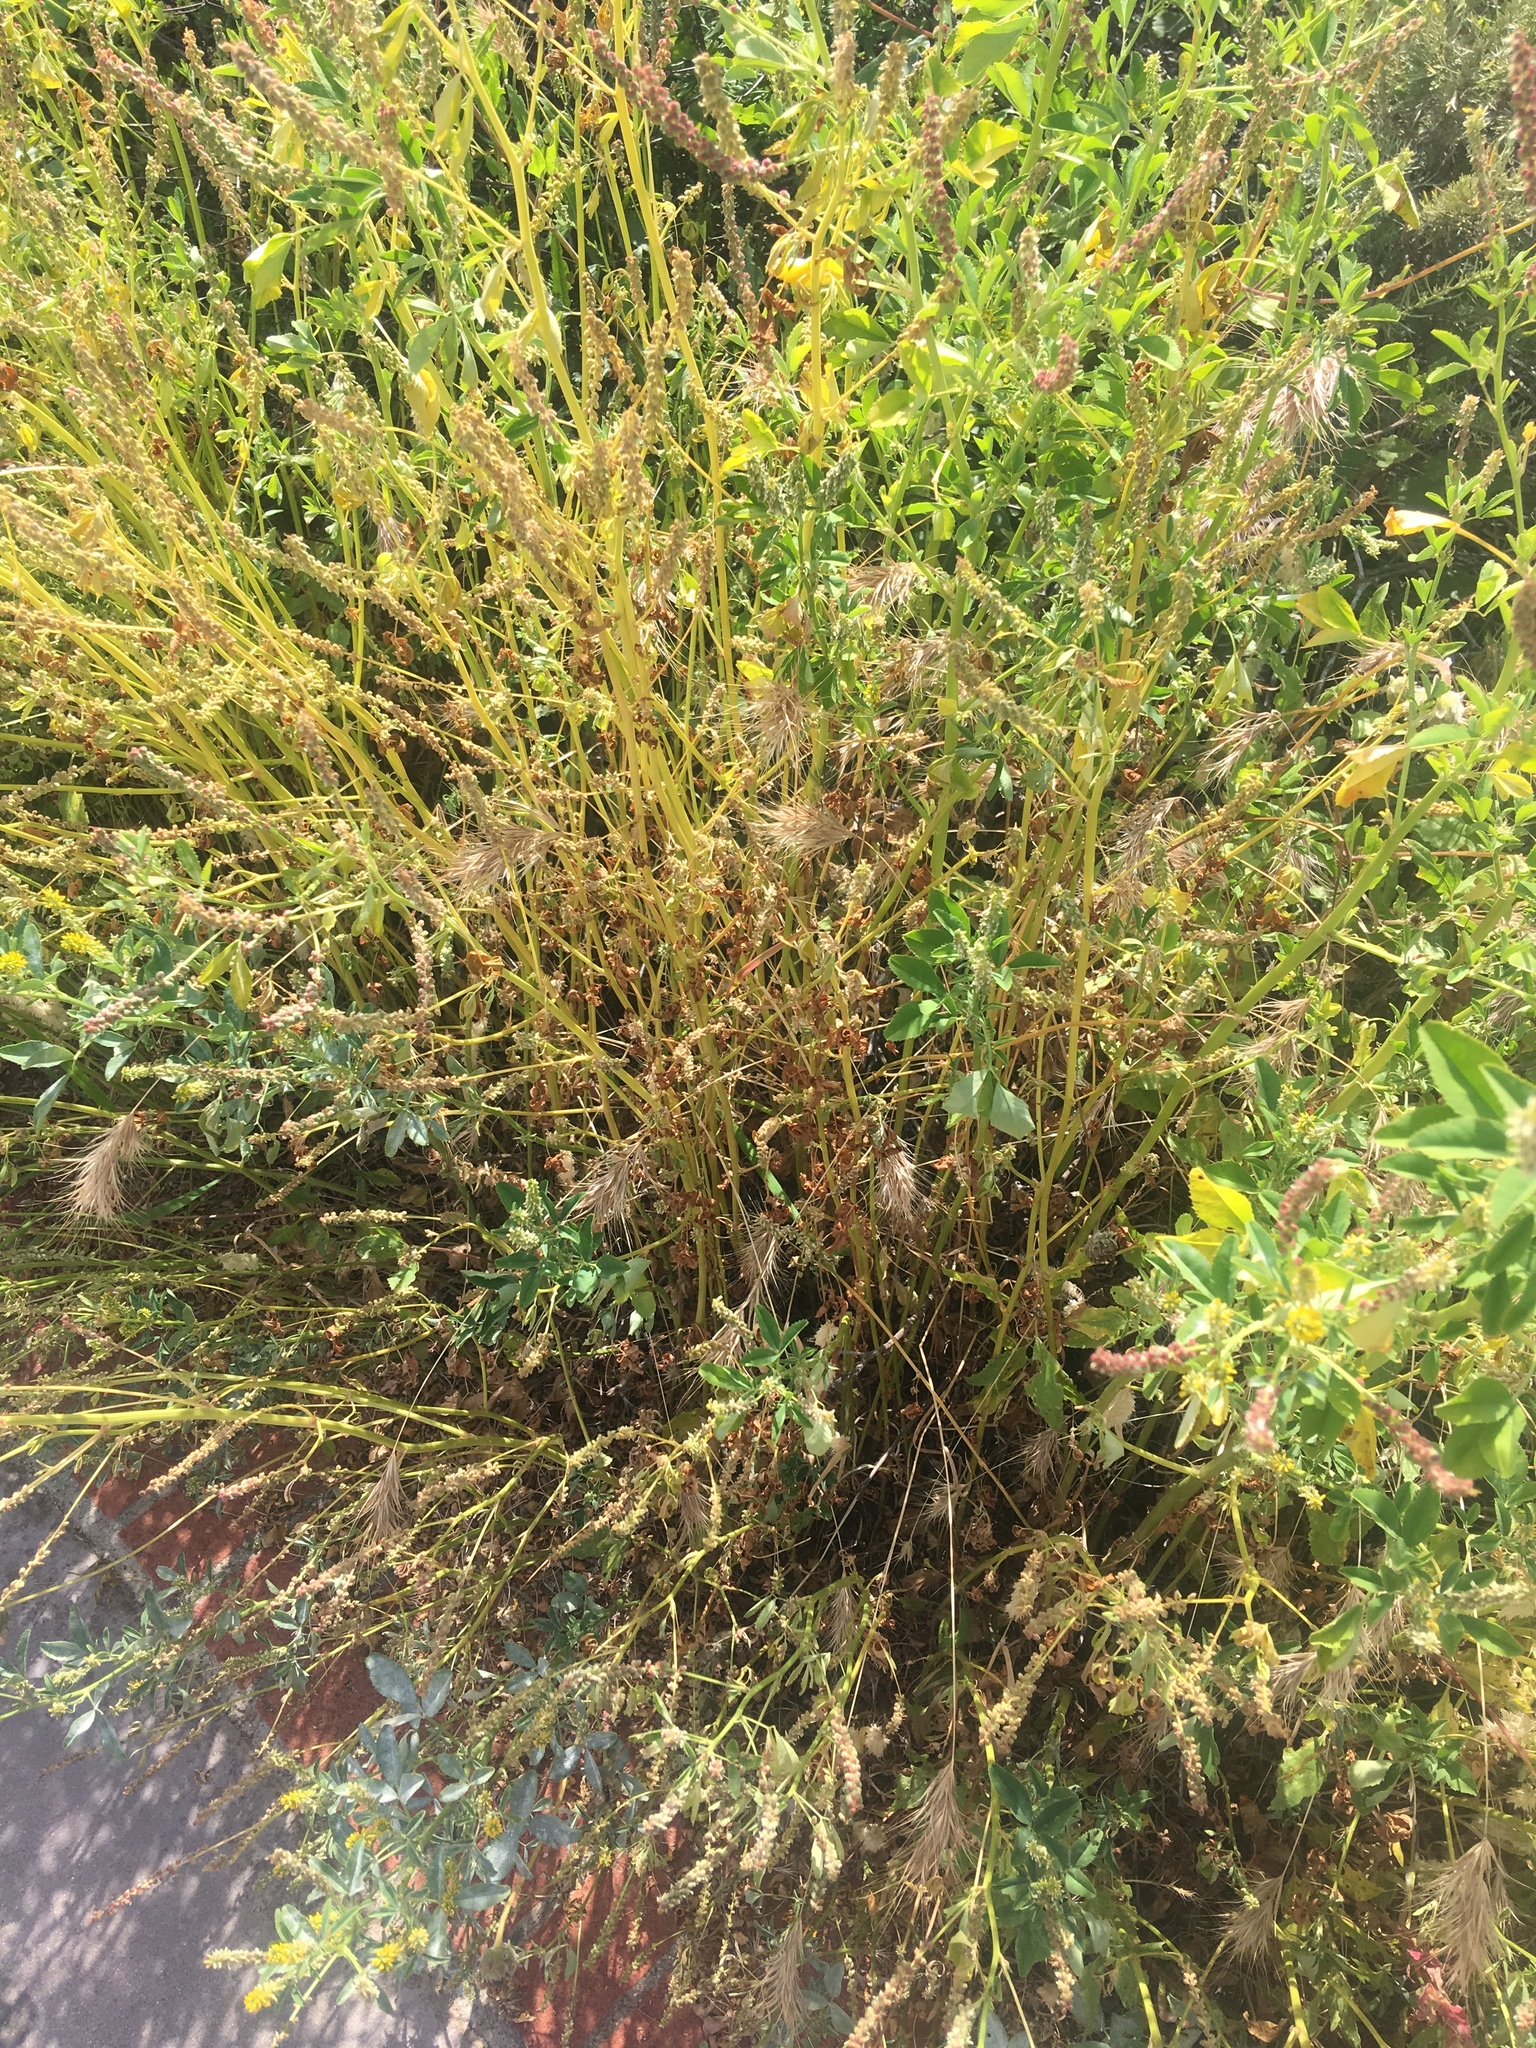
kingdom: Plantae
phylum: Tracheophyta
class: Magnoliopsida
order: Fabales
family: Fabaceae
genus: Melilotus
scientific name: Melilotus indicus
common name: Small melilot
